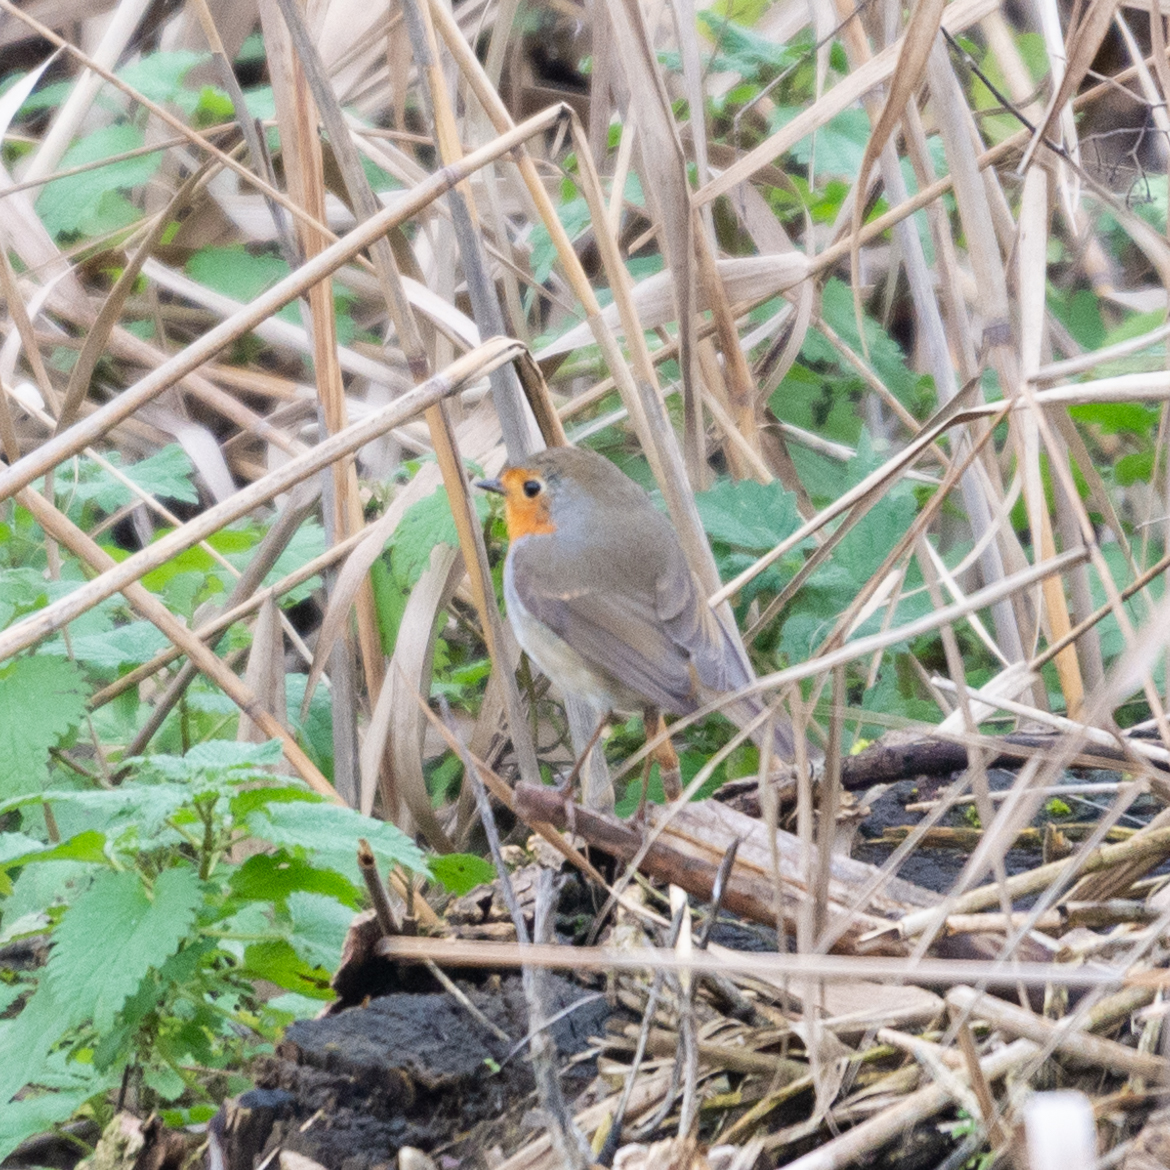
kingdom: Animalia
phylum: Chordata
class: Aves
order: Passeriformes
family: Muscicapidae
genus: Erithacus
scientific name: Erithacus rubecula
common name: European robin
